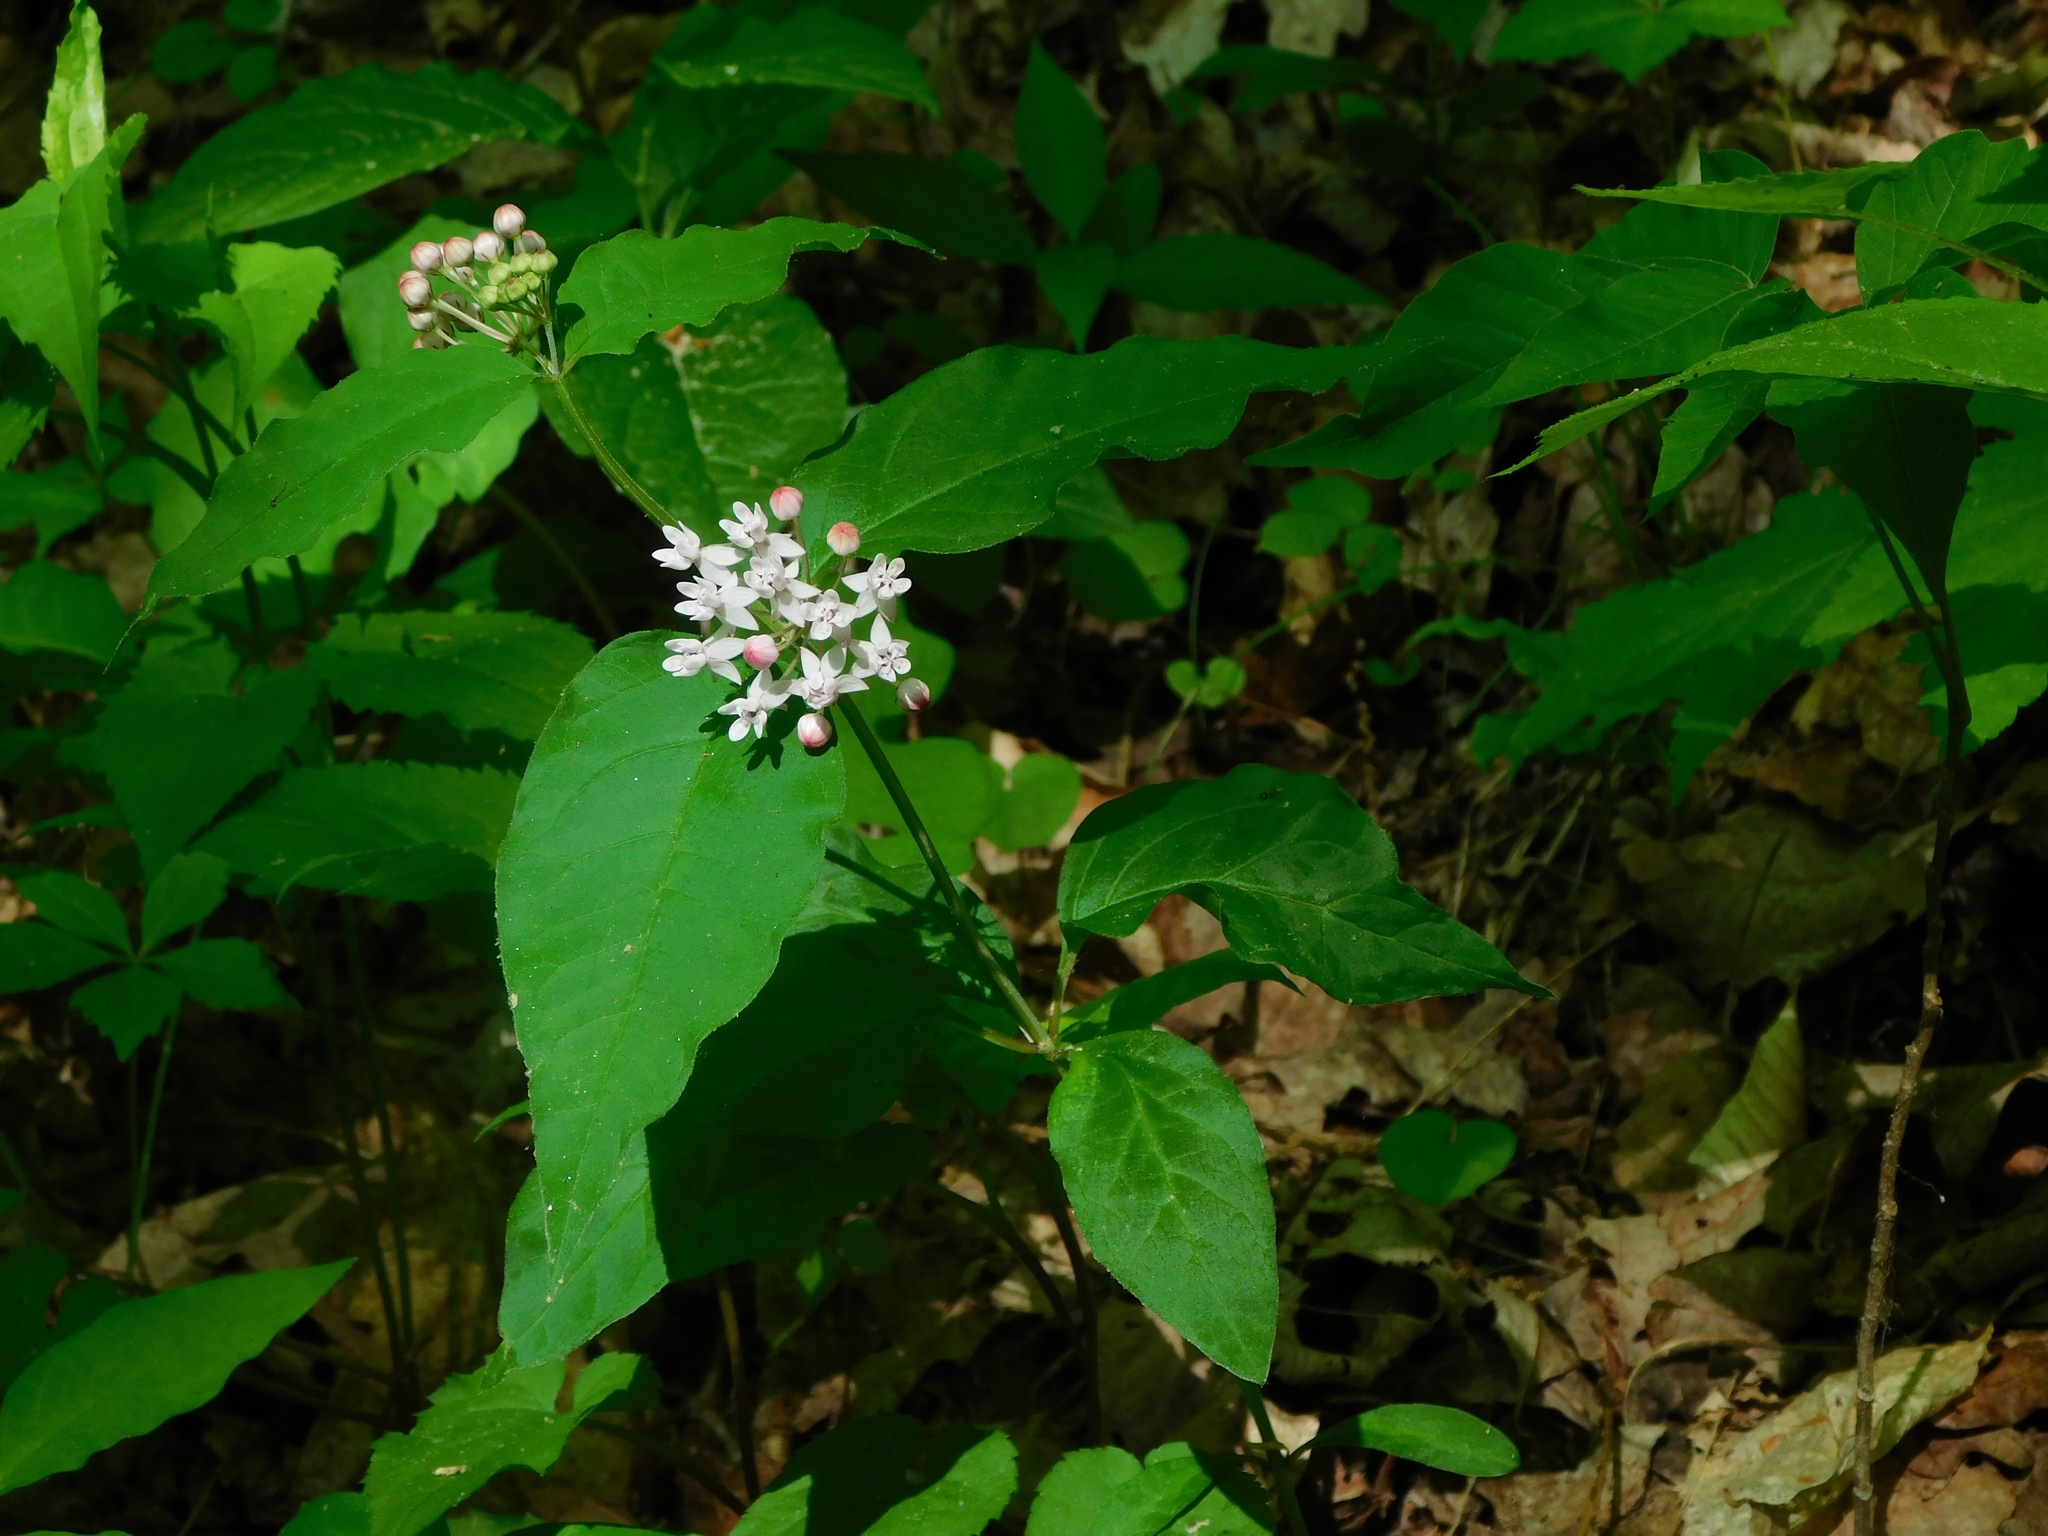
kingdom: Plantae
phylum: Tracheophyta
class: Magnoliopsida
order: Gentianales
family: Apocynaceae
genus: Asclepias
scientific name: Asclepias quadrifolia
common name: Whorled milkweed
